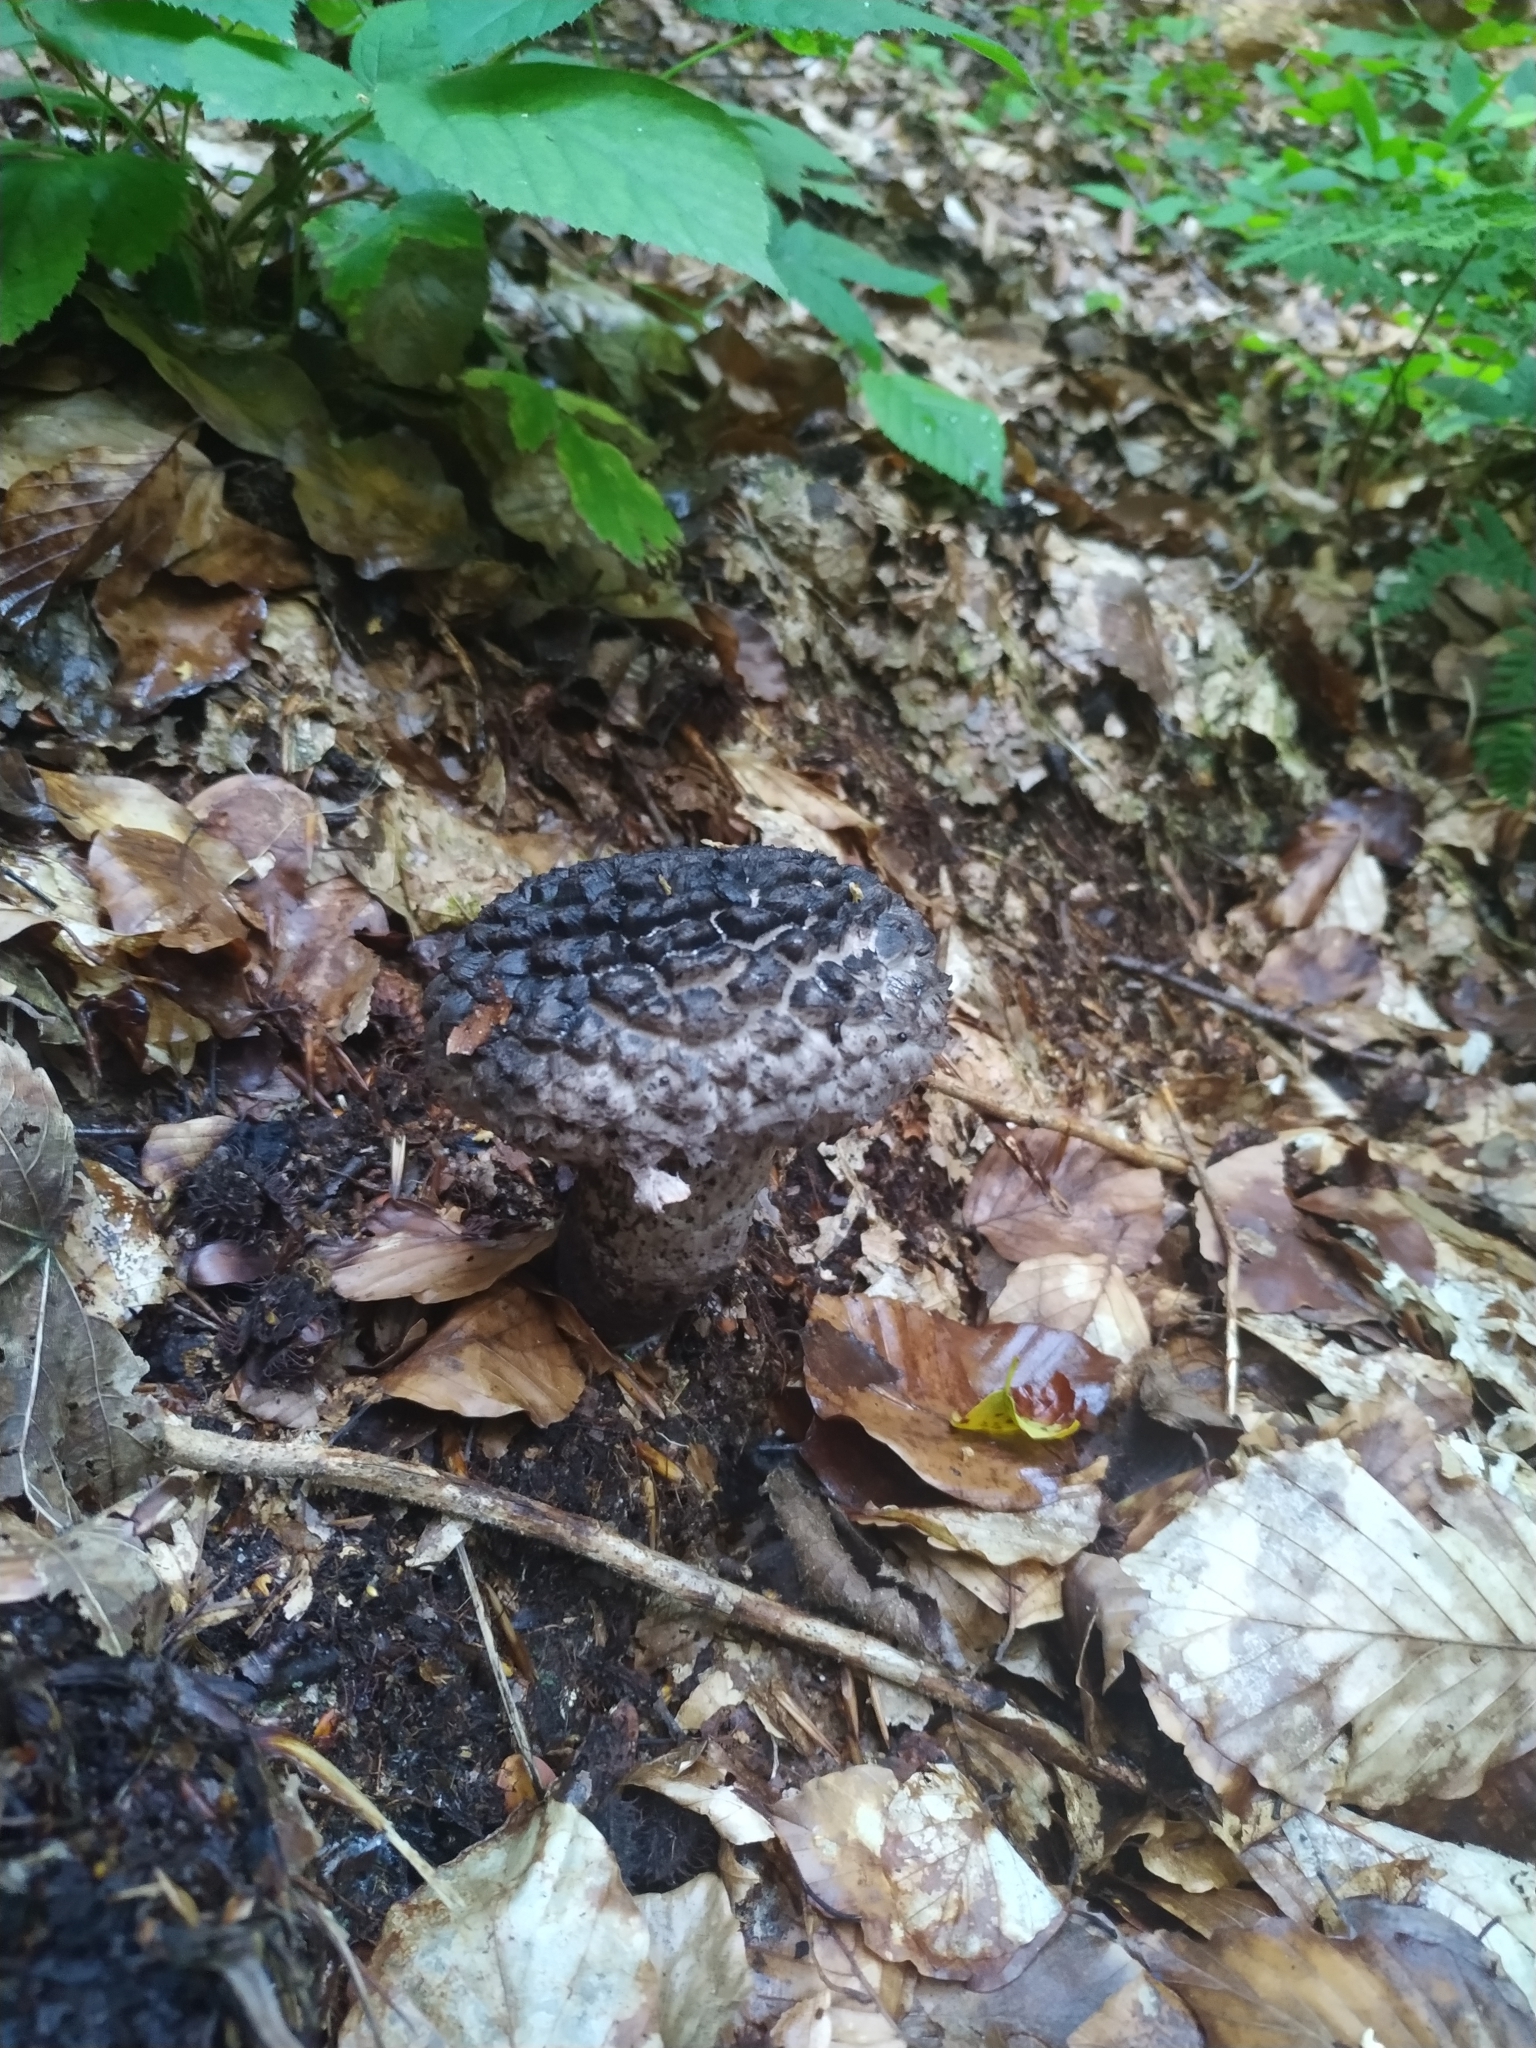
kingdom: Fungi
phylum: Basidiomycota
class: Agaricomycetes
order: Boletales
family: Boletaceae
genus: Strobilomyces
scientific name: Strobilomyces strobilaceus
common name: Old man of the woods
